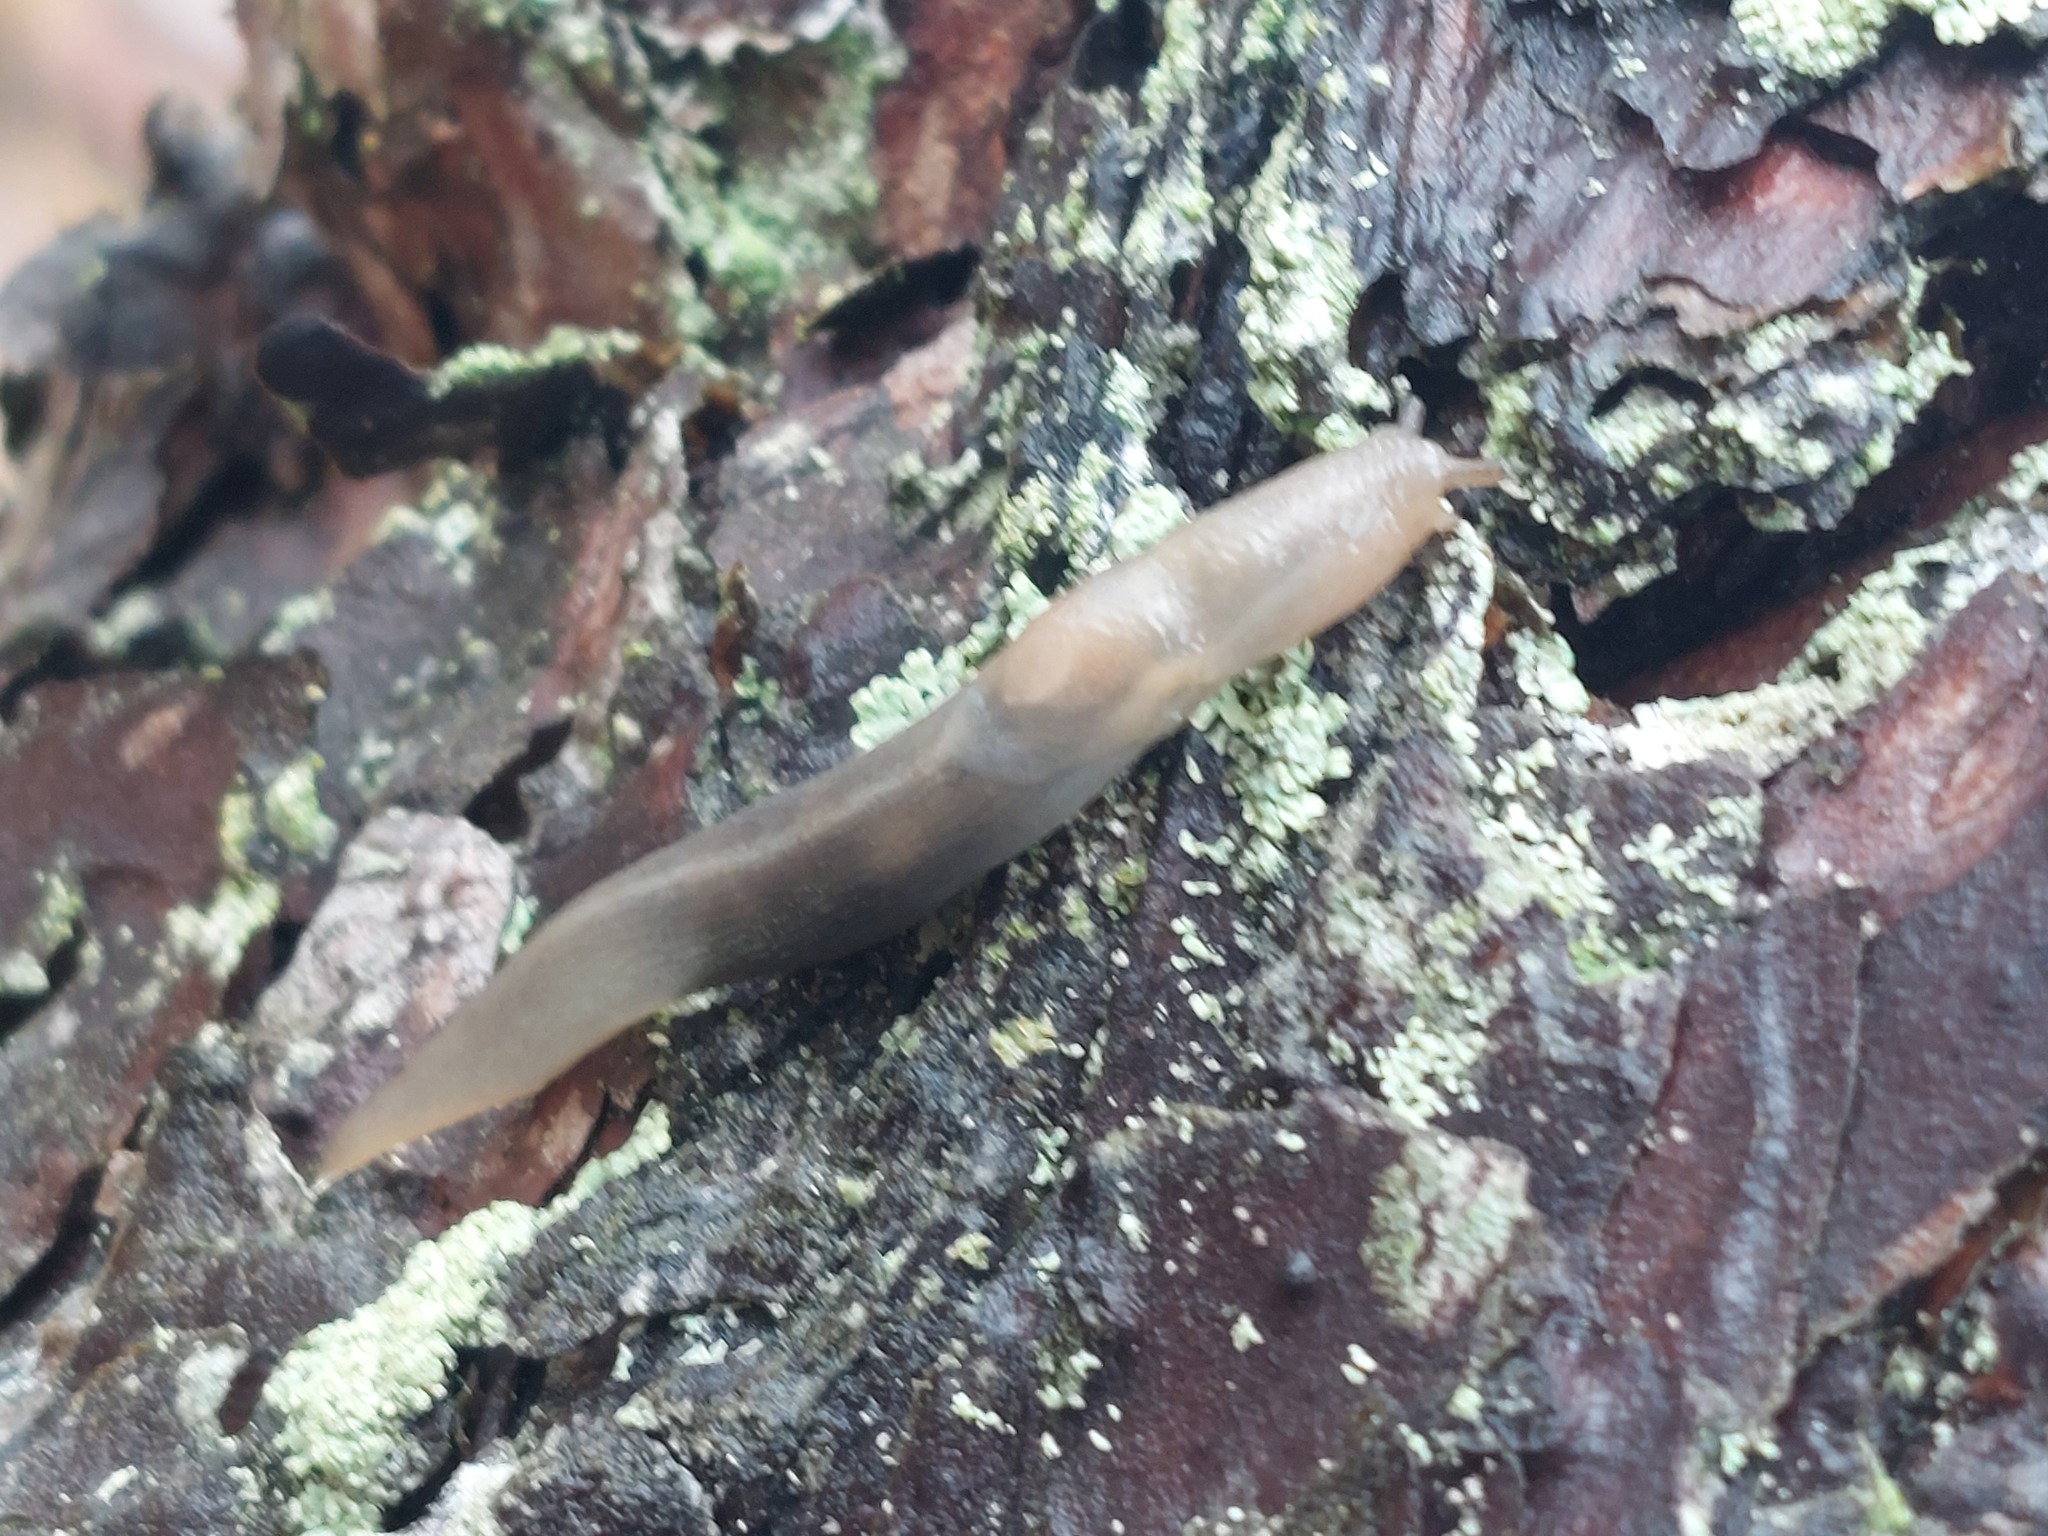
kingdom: Animalia
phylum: Mollusca
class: Gastropoda
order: Stylommatophora
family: Limacidae
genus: Lehmannia
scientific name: Lehmannia marginata
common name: Tree slug
